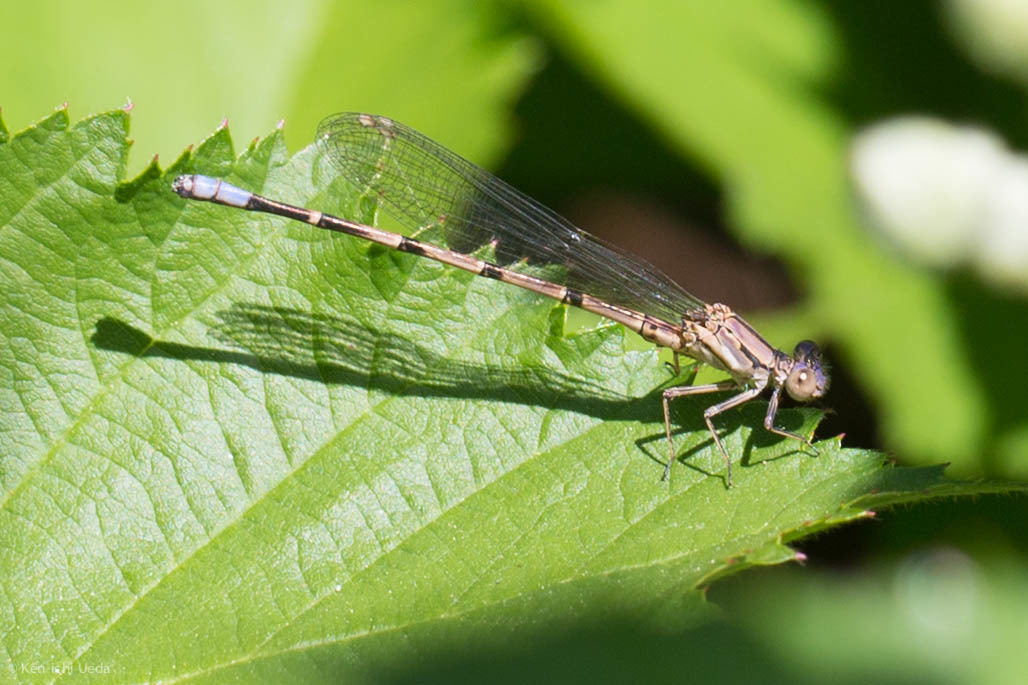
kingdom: Animalia
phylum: Arthropoda
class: Insecta
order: Odonata
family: Coenagrionidae
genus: Argia
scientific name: Argia emma
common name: Emma's dancer
